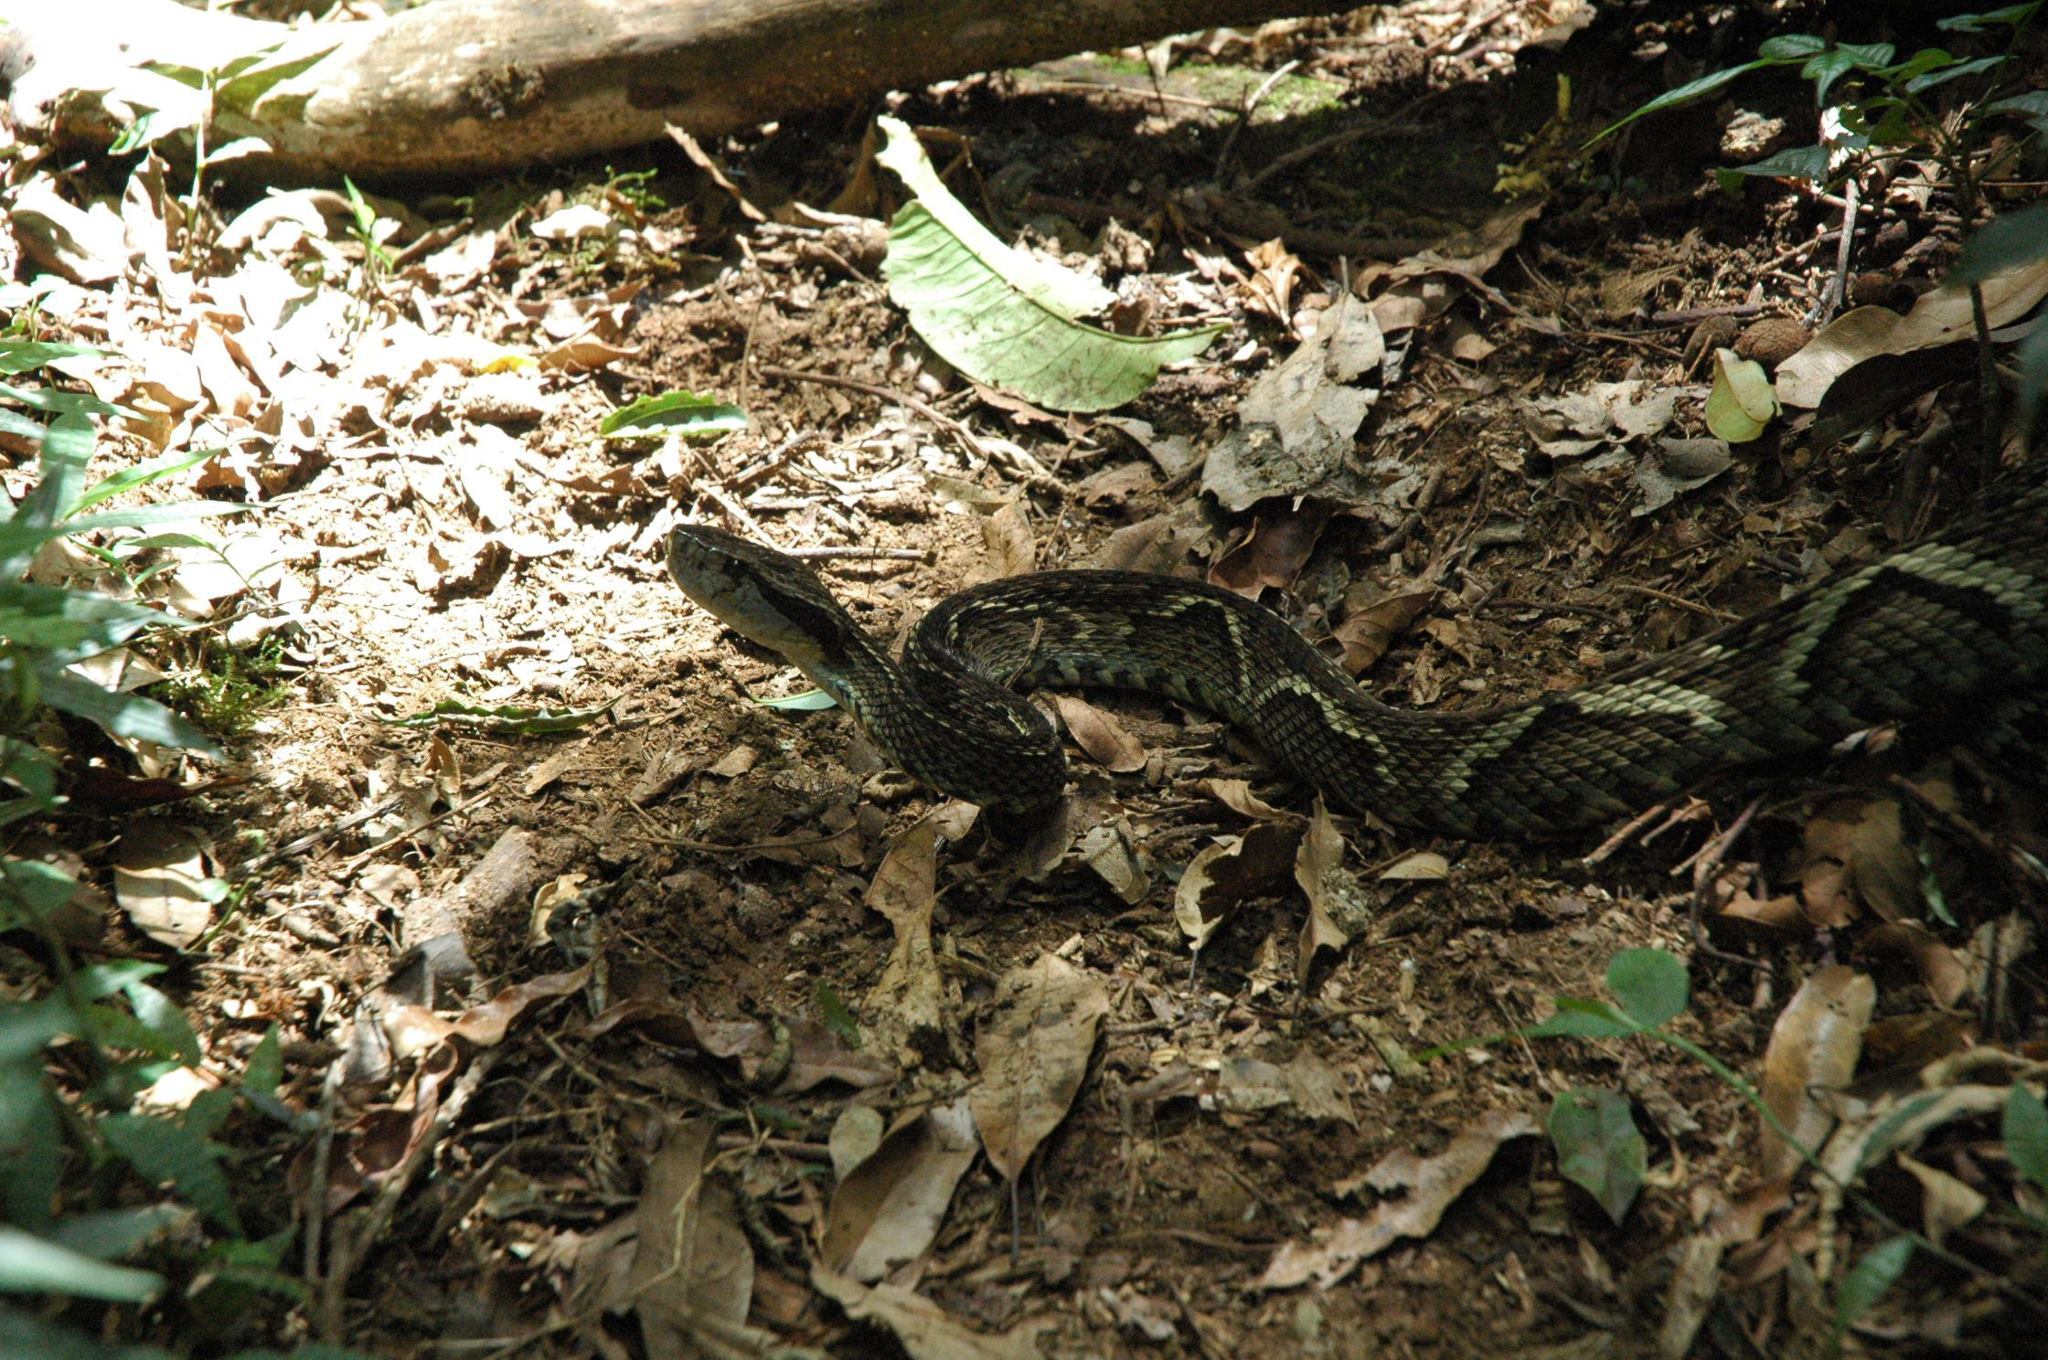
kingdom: Animalia
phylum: Chordata
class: Squamata
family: Viperidae
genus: Bothrops
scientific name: Bothrops jararaca
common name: Jararaca
